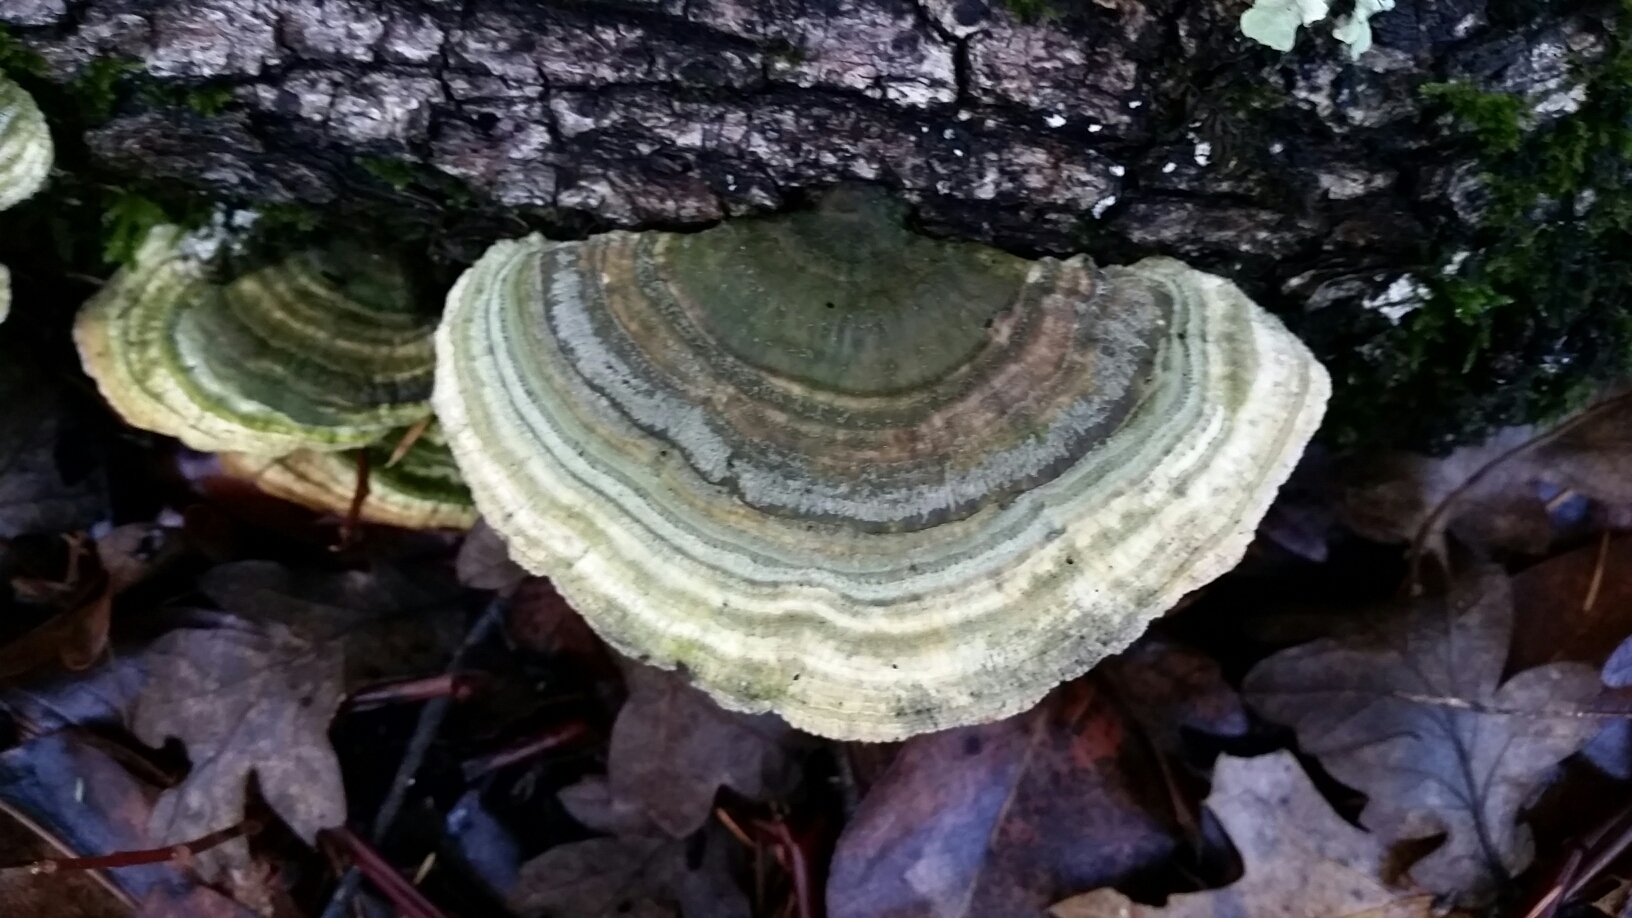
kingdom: Fungi
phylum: Basidiomycota
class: Agaricomycetes
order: Polyporales
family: Polyporaceae
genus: Lenzites
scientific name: Lenzites betulinus
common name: Birch mazegill
